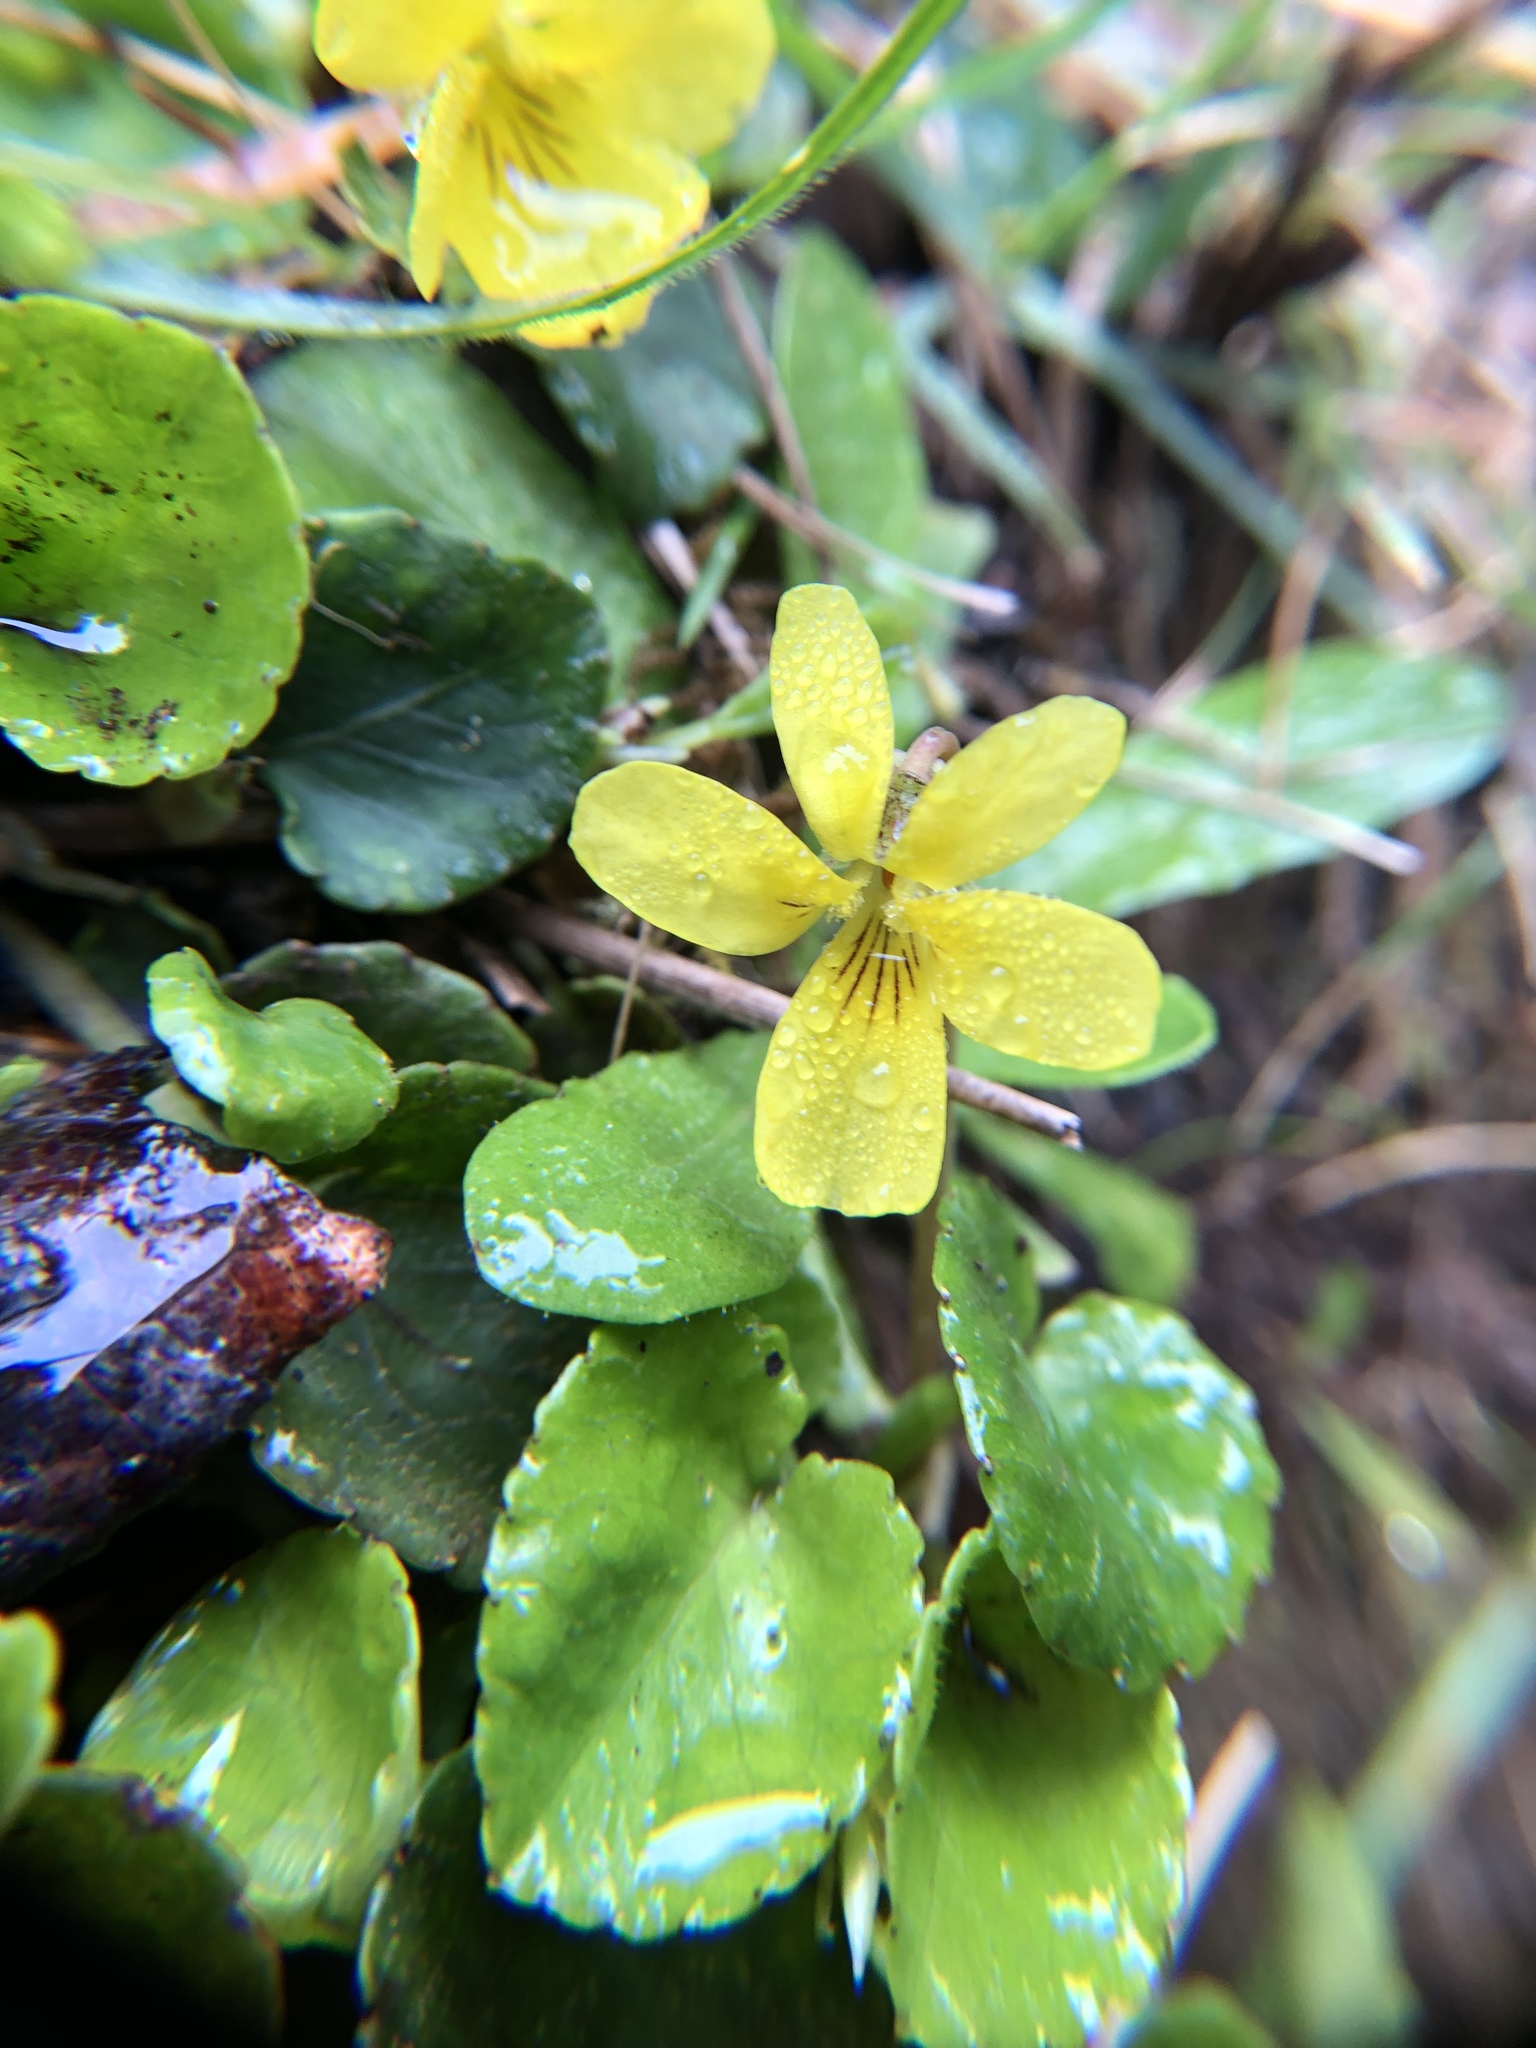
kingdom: Plantae
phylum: Tracheophyta
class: Magnoliopsida
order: Malpighiales
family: Violaceae
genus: Viola
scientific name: Viola sempervirens
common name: Evergreen violet
